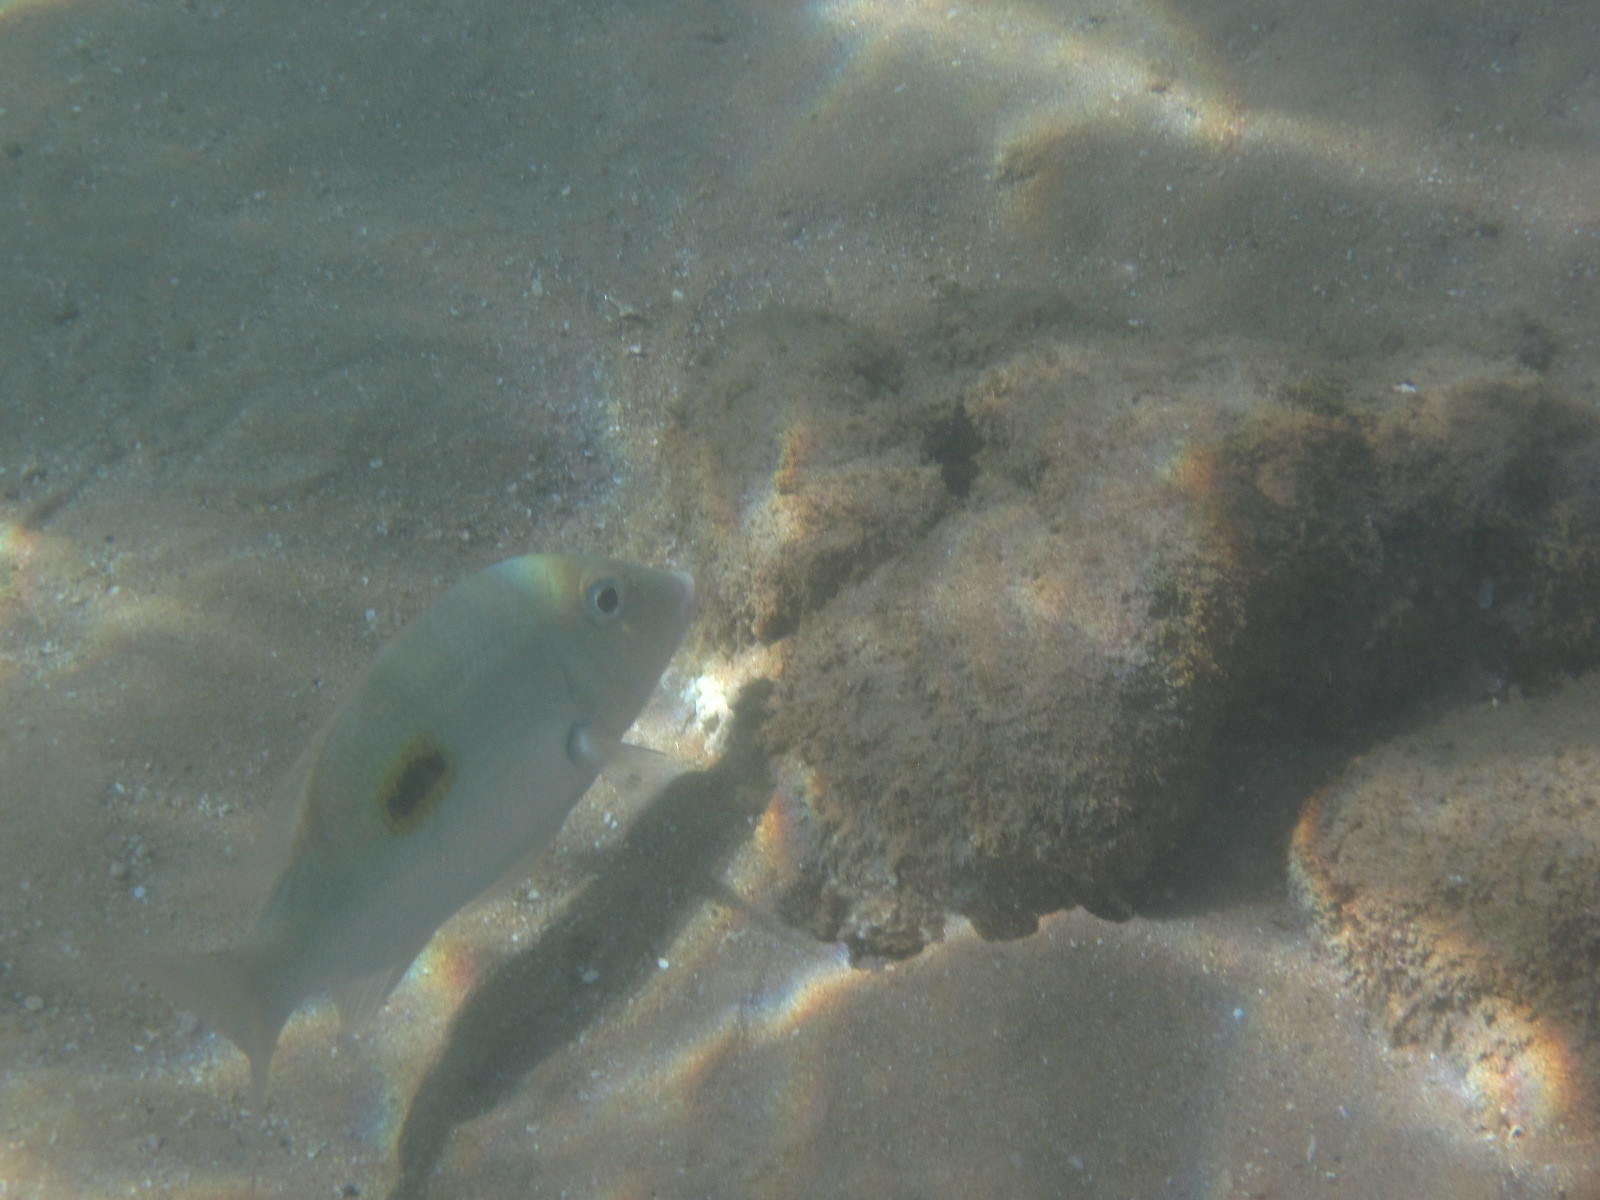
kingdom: Animalia
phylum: Chordata
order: Perciformes
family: Lethrinidae
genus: Lethrinus
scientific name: Lethrinus harak
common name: Blackspot emperor
